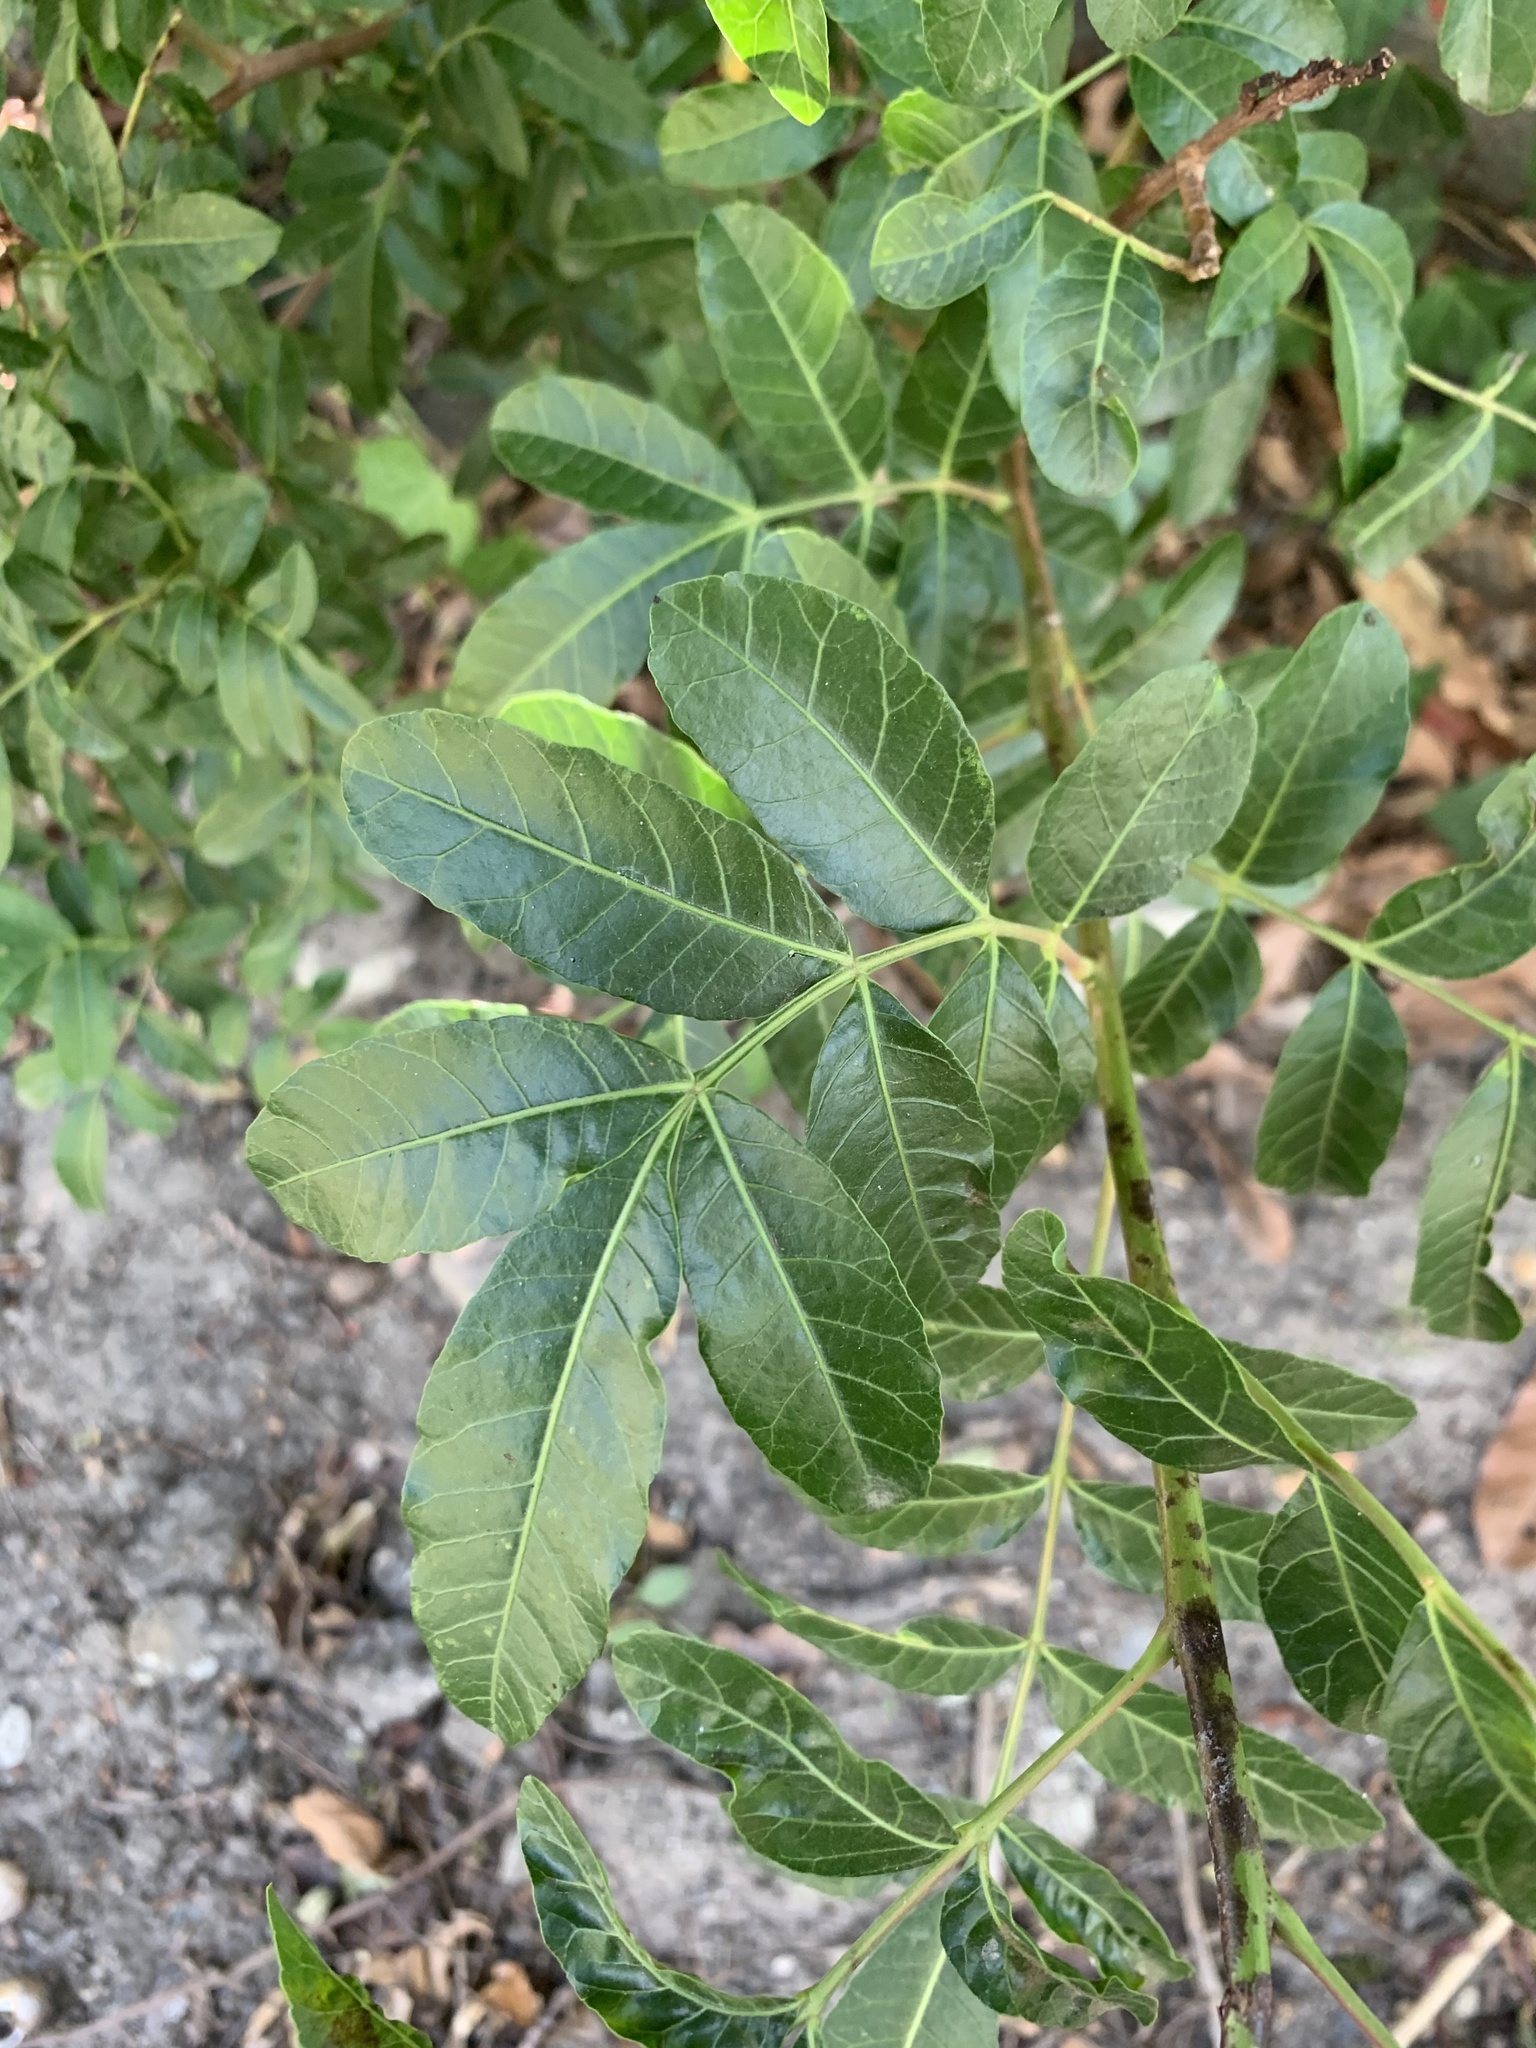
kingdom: Plantae
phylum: Tracheophyta
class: Magnoliopsida
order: Sapindales
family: Anacardiaceae
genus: Schinus
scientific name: Schinus terebinthifolia
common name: Brazilian peppertree
